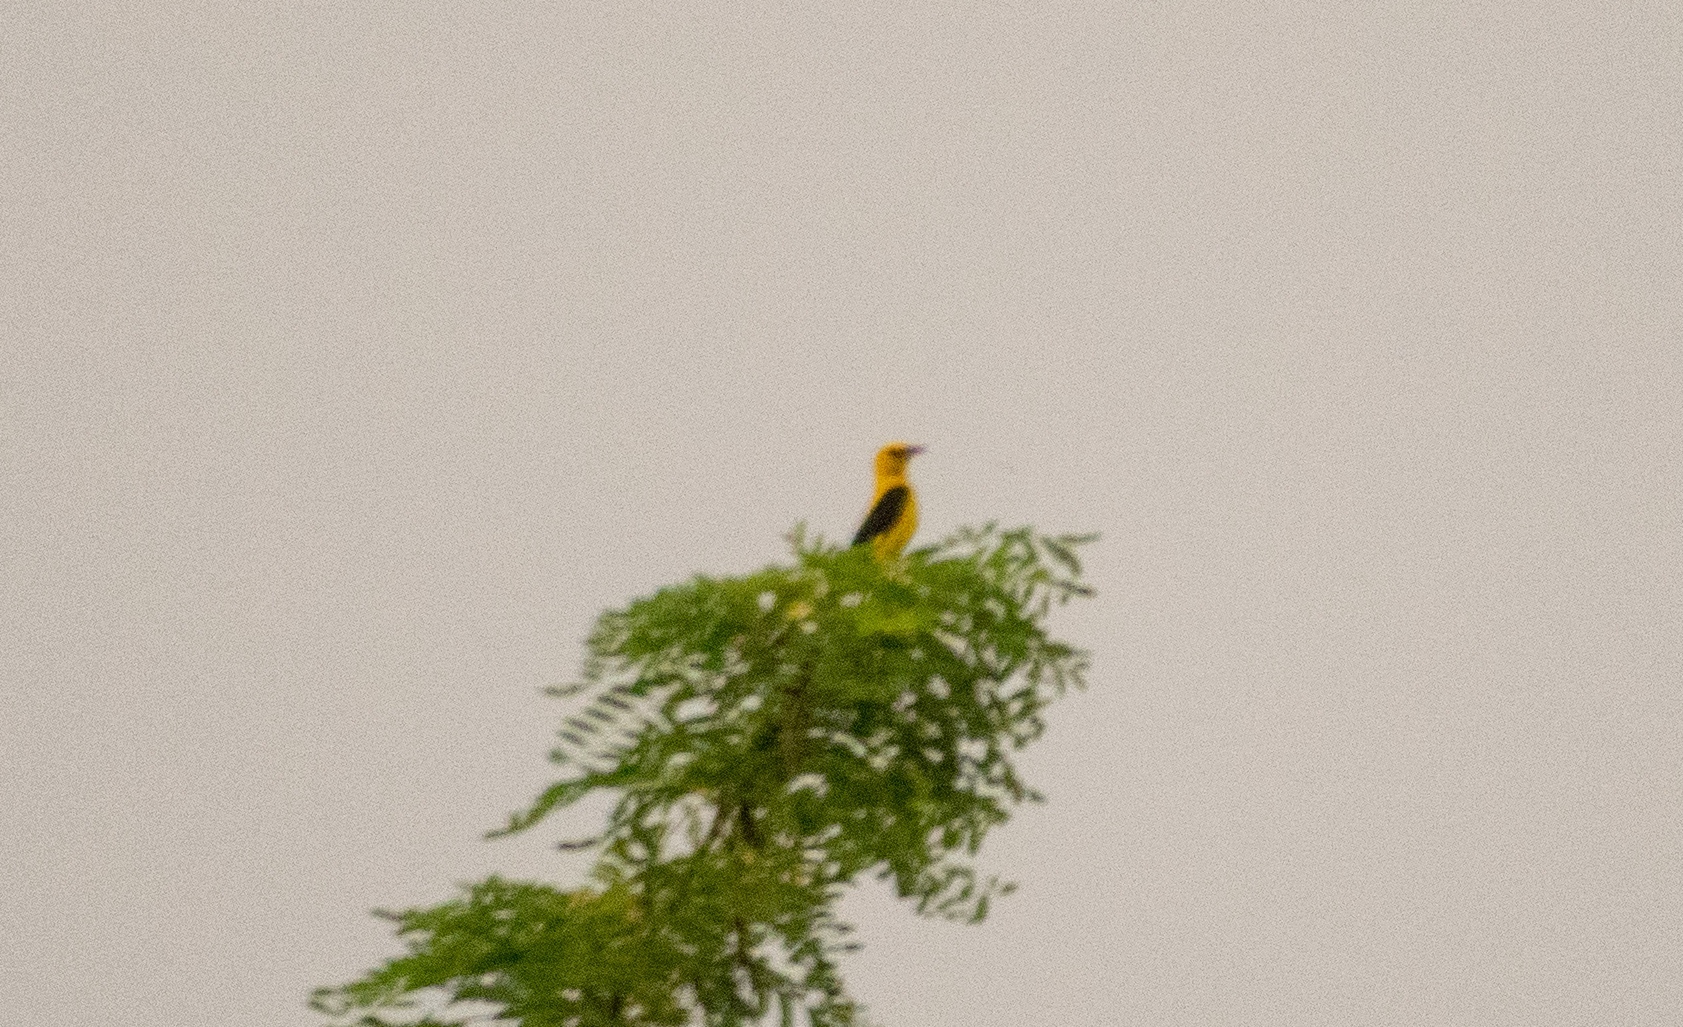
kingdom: Animalia
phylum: Chordata
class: Aves
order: Passeriformes
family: Oriolidae
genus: Oriolus
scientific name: Oriolus oriolus
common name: Eurasian golden oriole
